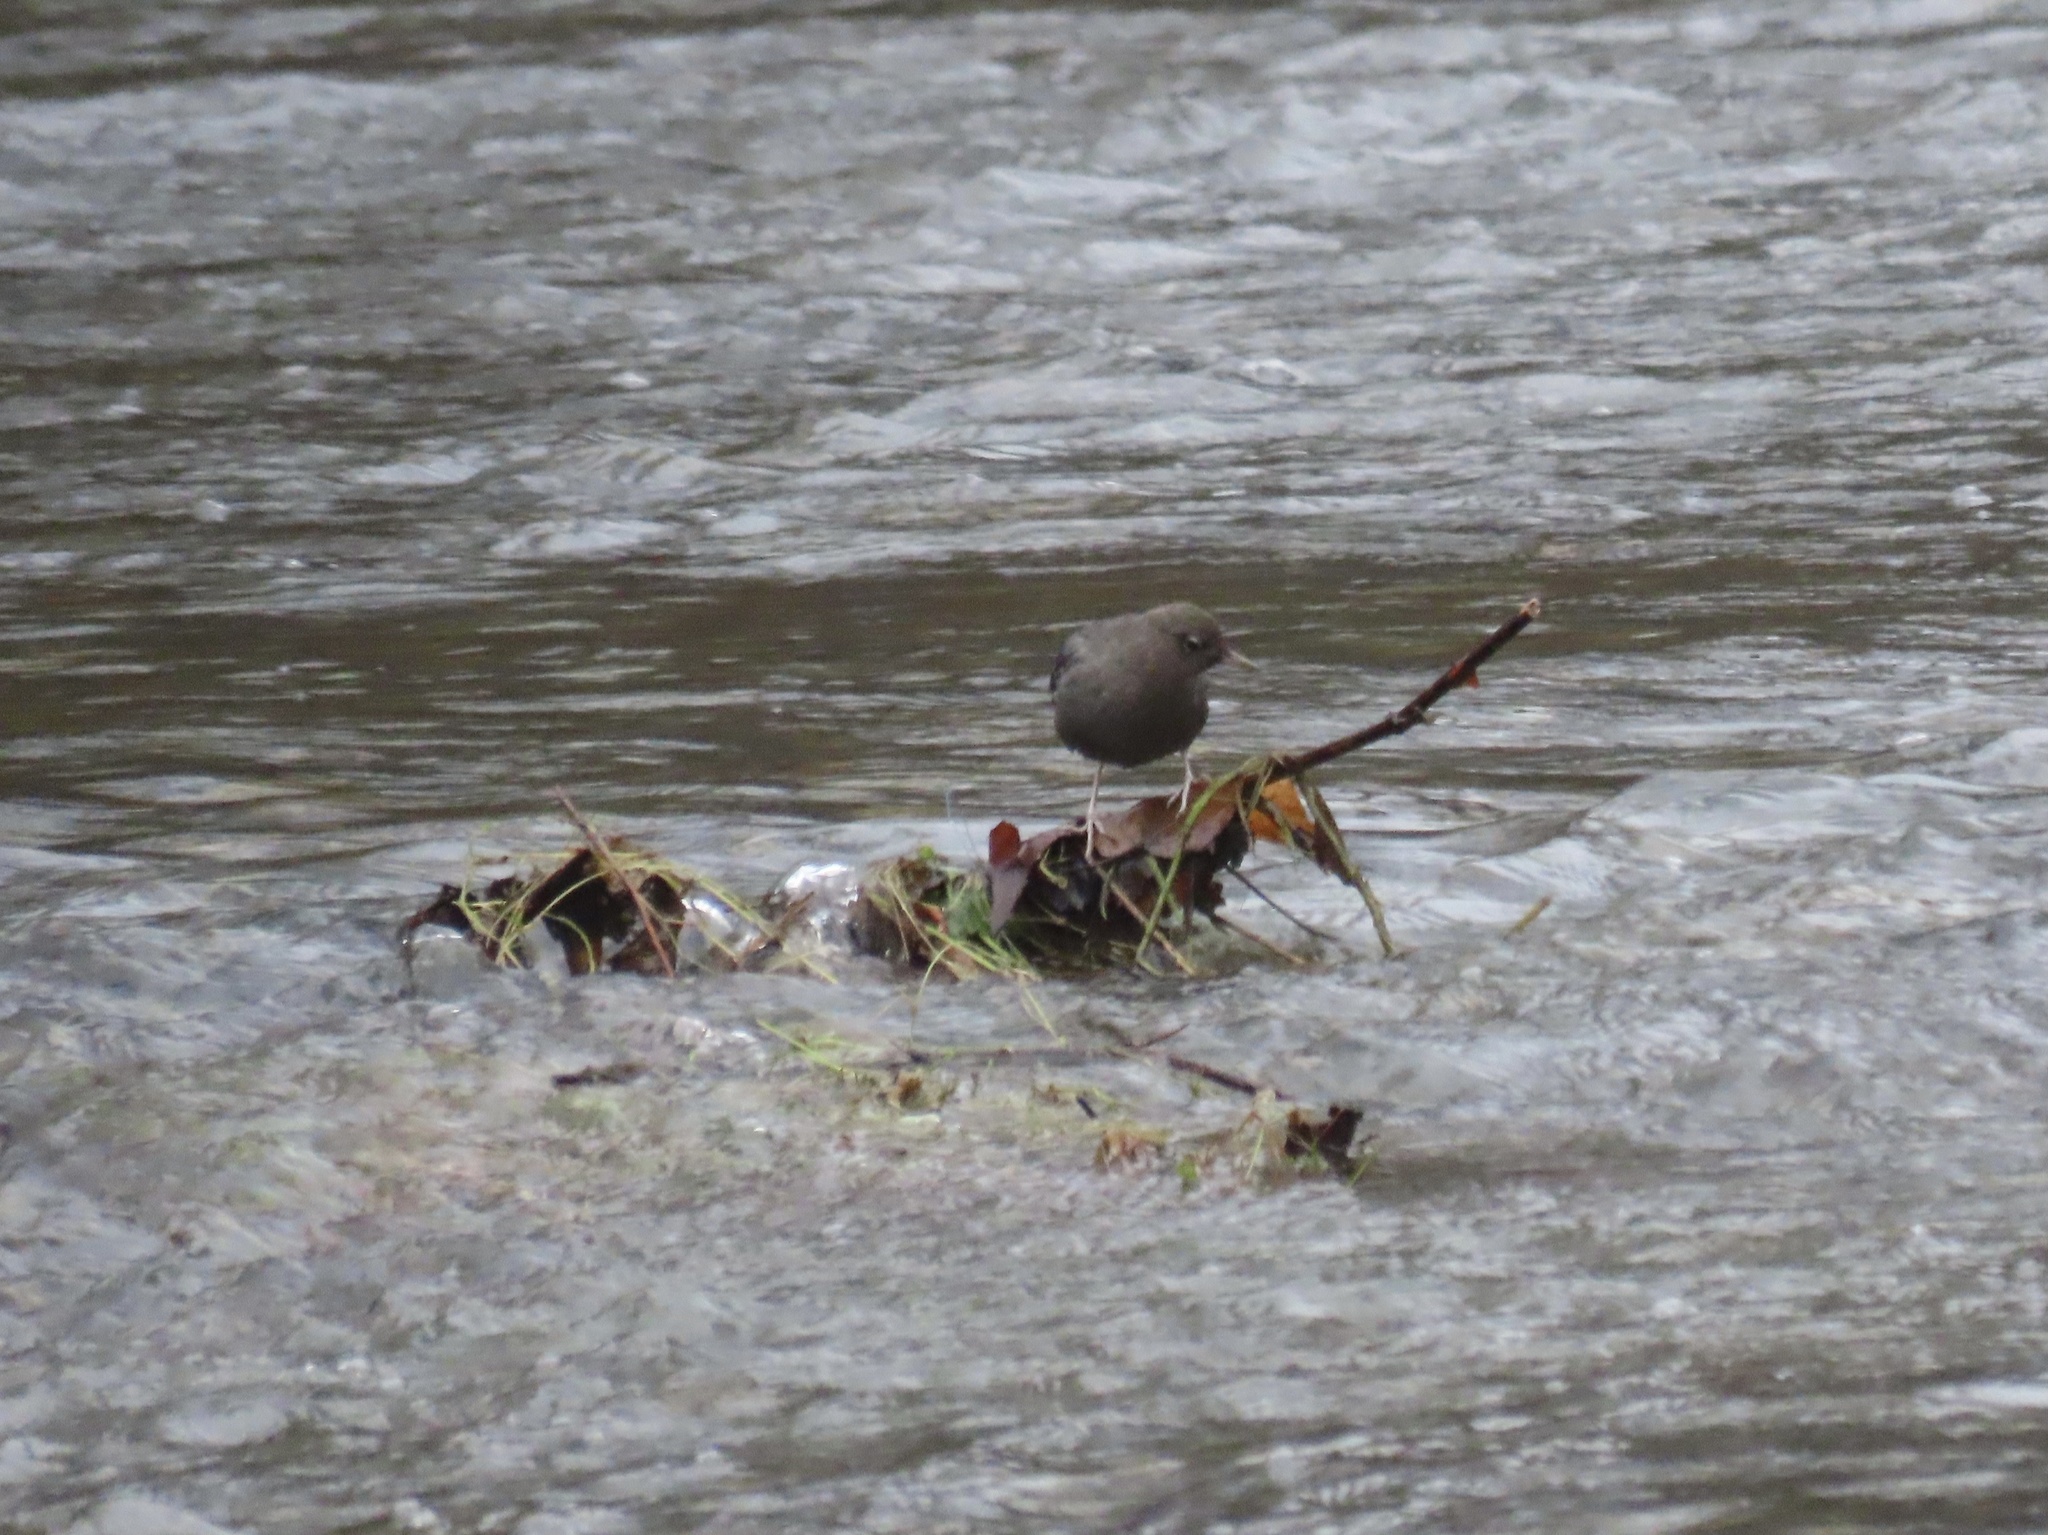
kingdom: Animalia
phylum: Chordata
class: Aves
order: Passeriformes
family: Cinclidae
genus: Cinclus
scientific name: Cinclus mexicanus
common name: American dipper
